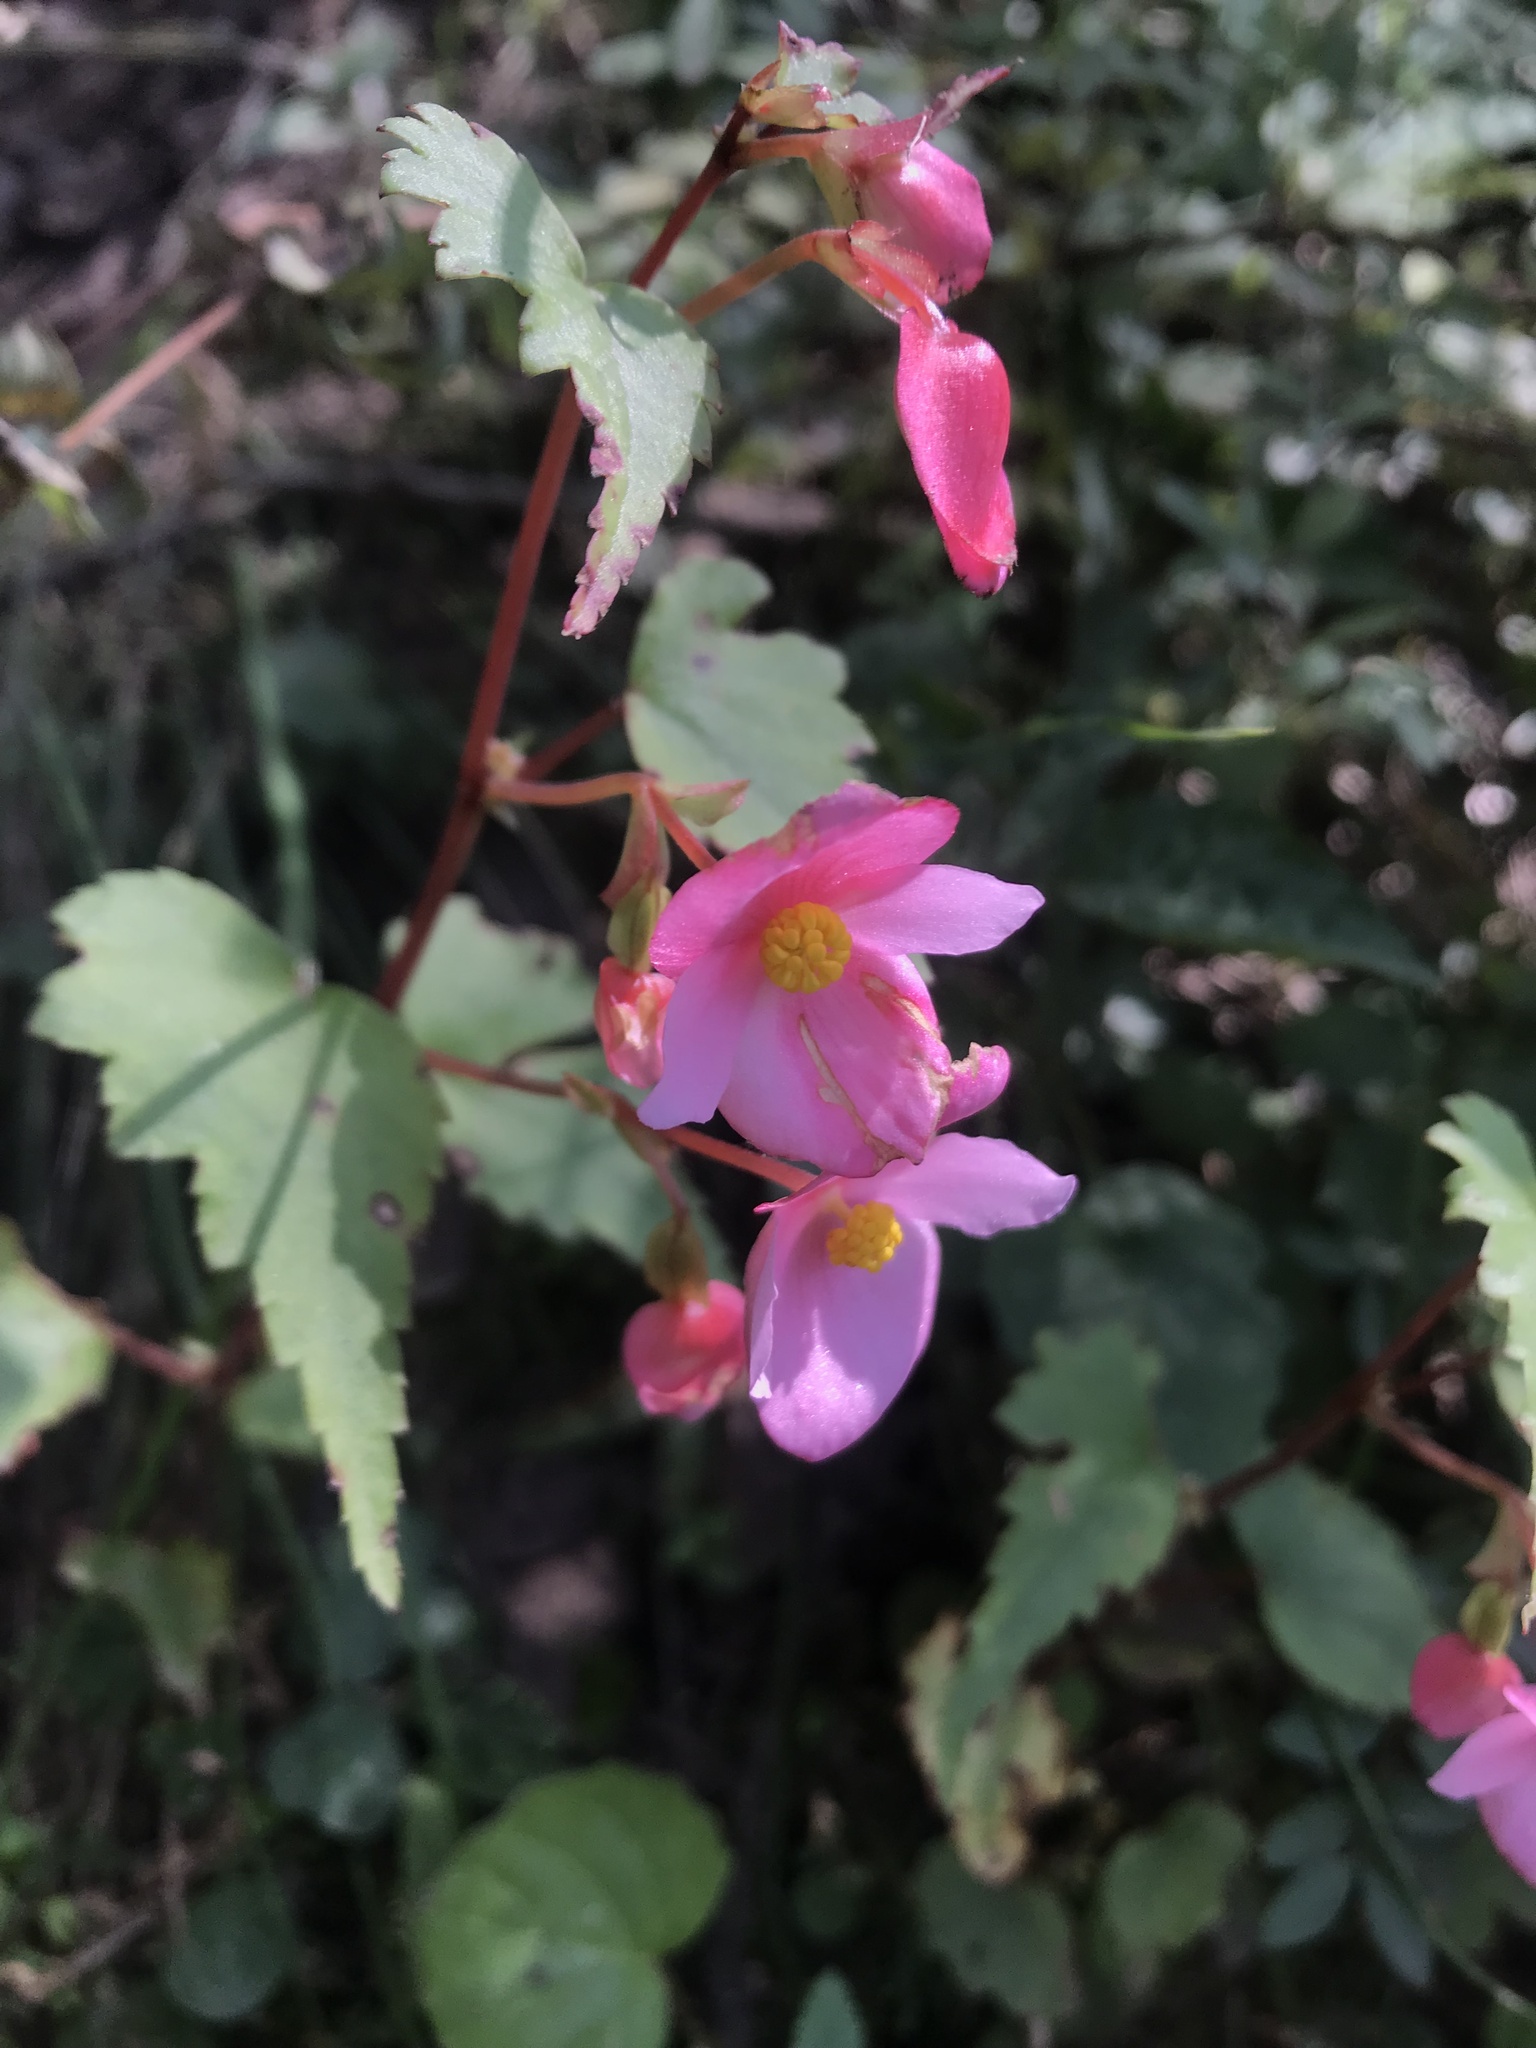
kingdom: Plantae
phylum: Tracheophyta
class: Magnoliopsida
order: Cucurbitales
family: Begoniaceae
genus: Begonia
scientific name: Begonia gracilis
